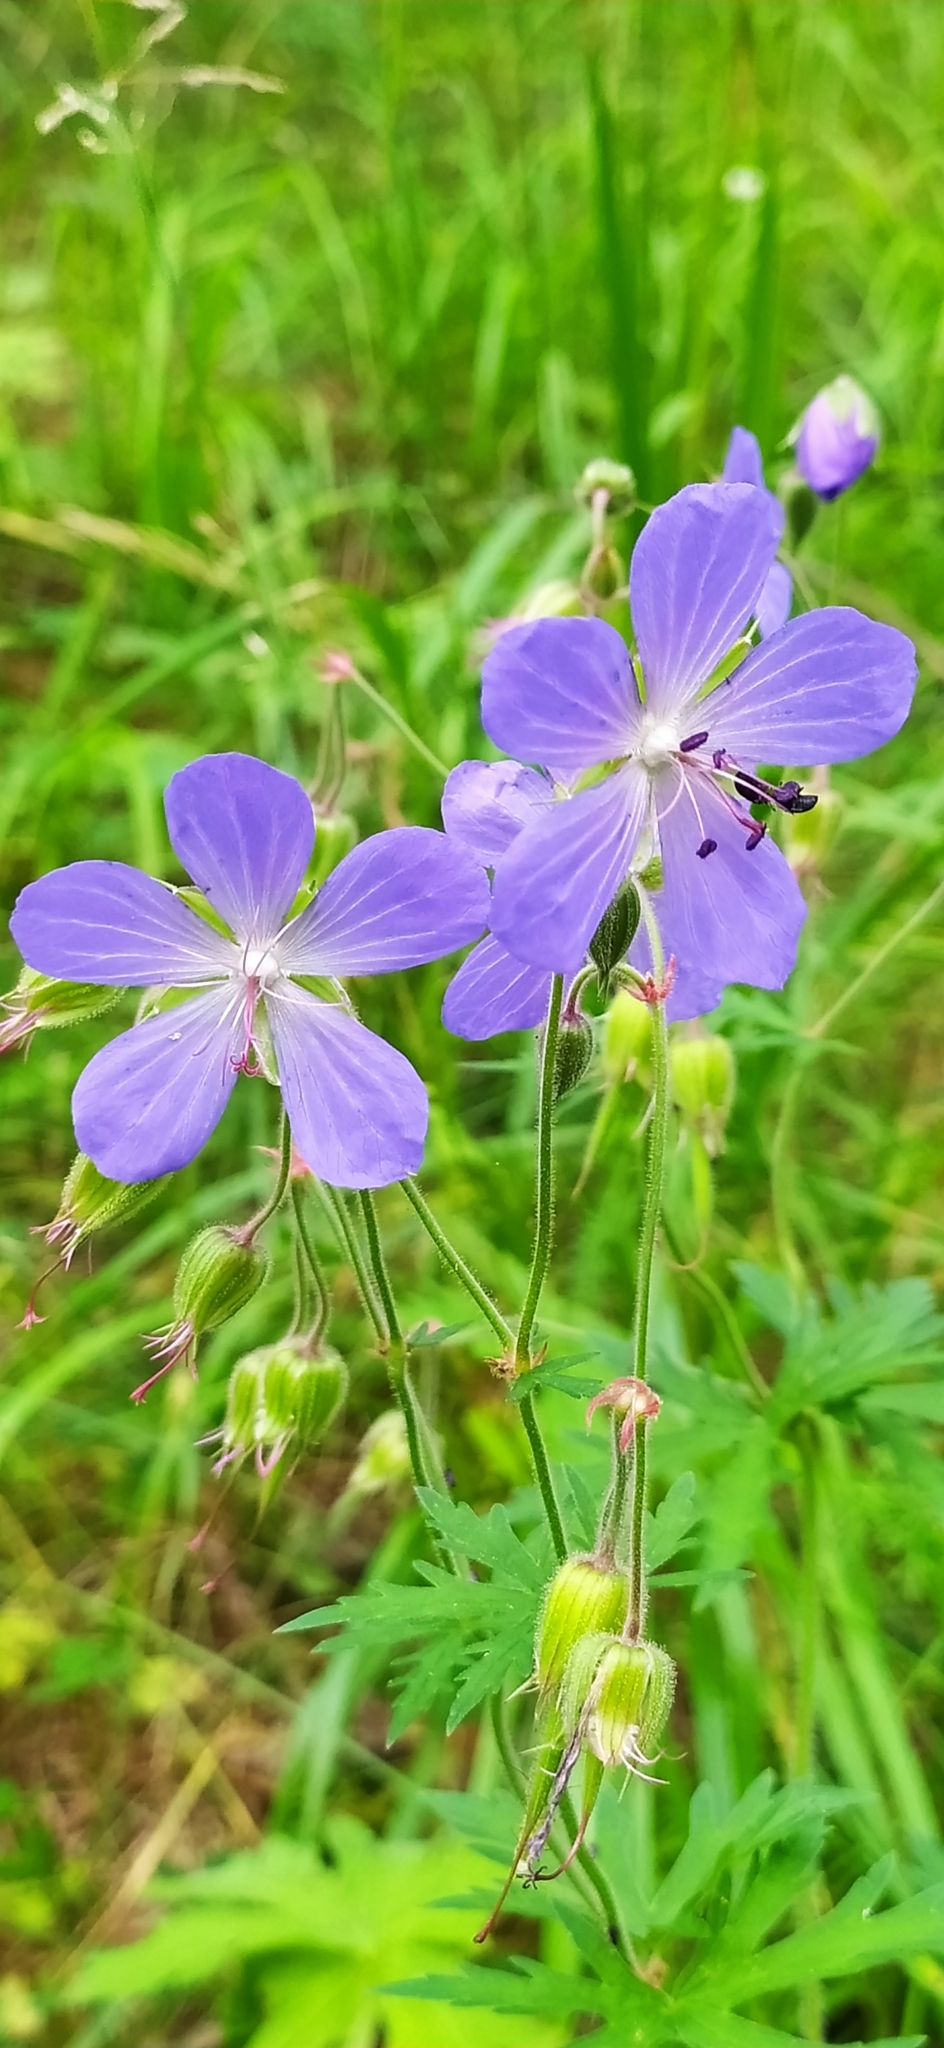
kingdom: Plantae
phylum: Tracheophyta
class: Magnoliopsida
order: Geraniales
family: Geraniaceae
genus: Geranium
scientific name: Geranium pratense
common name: Meadow crane's-bill
